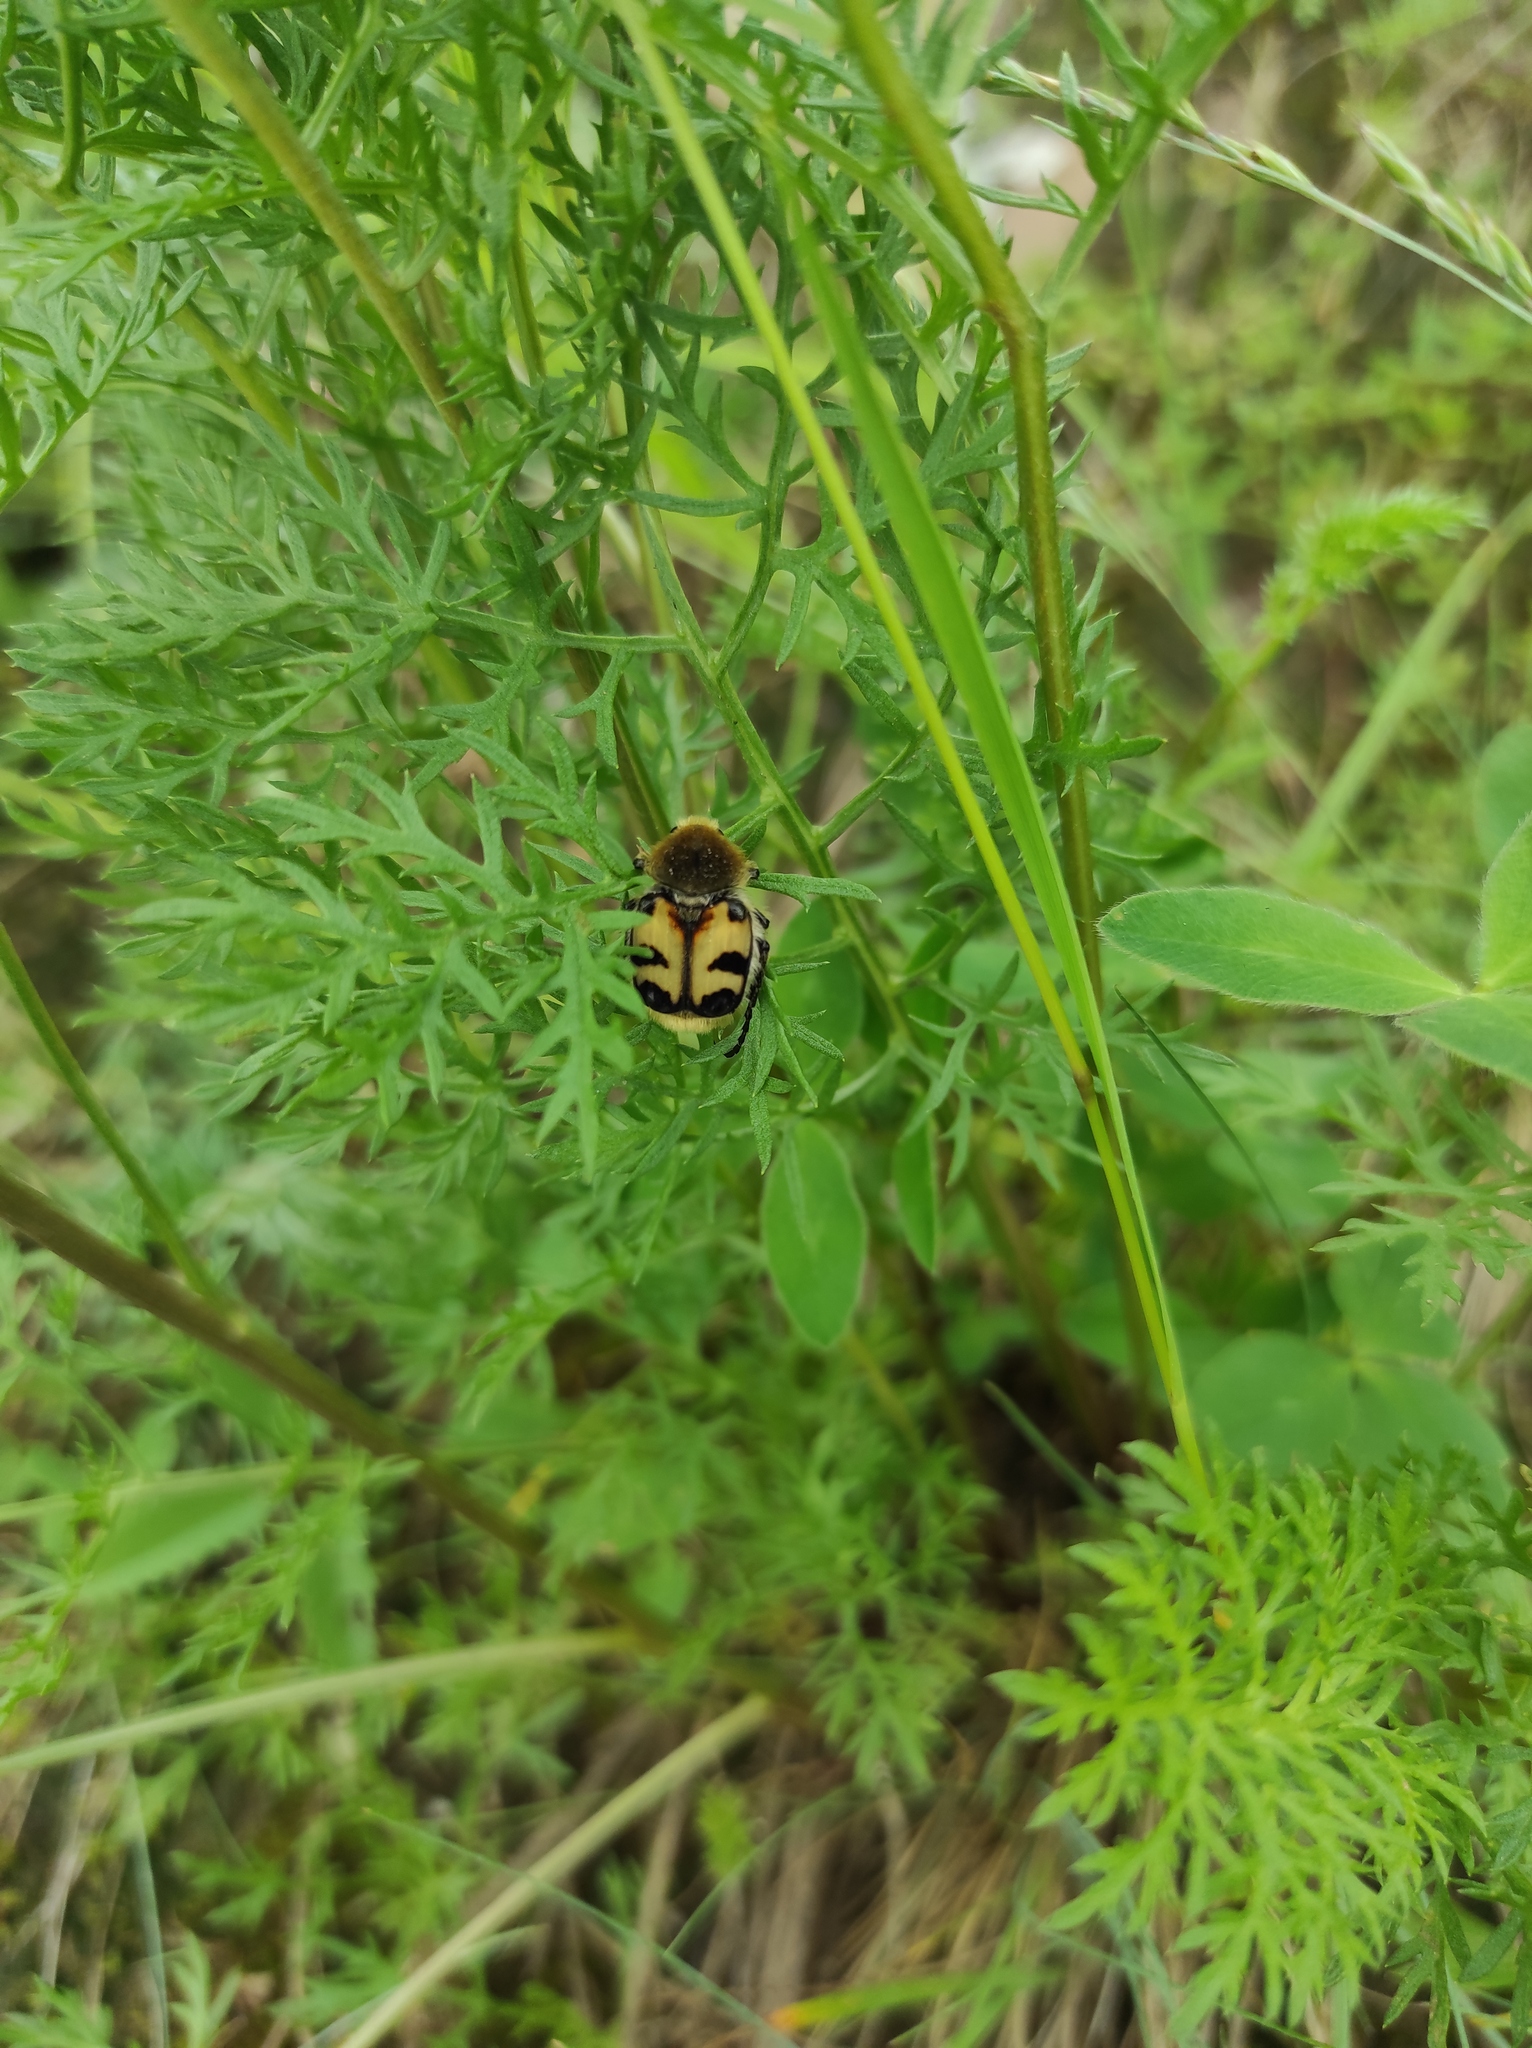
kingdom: Animalia
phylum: Arthropoda
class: Insecta
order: Coleoptera
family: Scarabaeidae
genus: Trichius
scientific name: Trichius fasciatus
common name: Bee beetle
